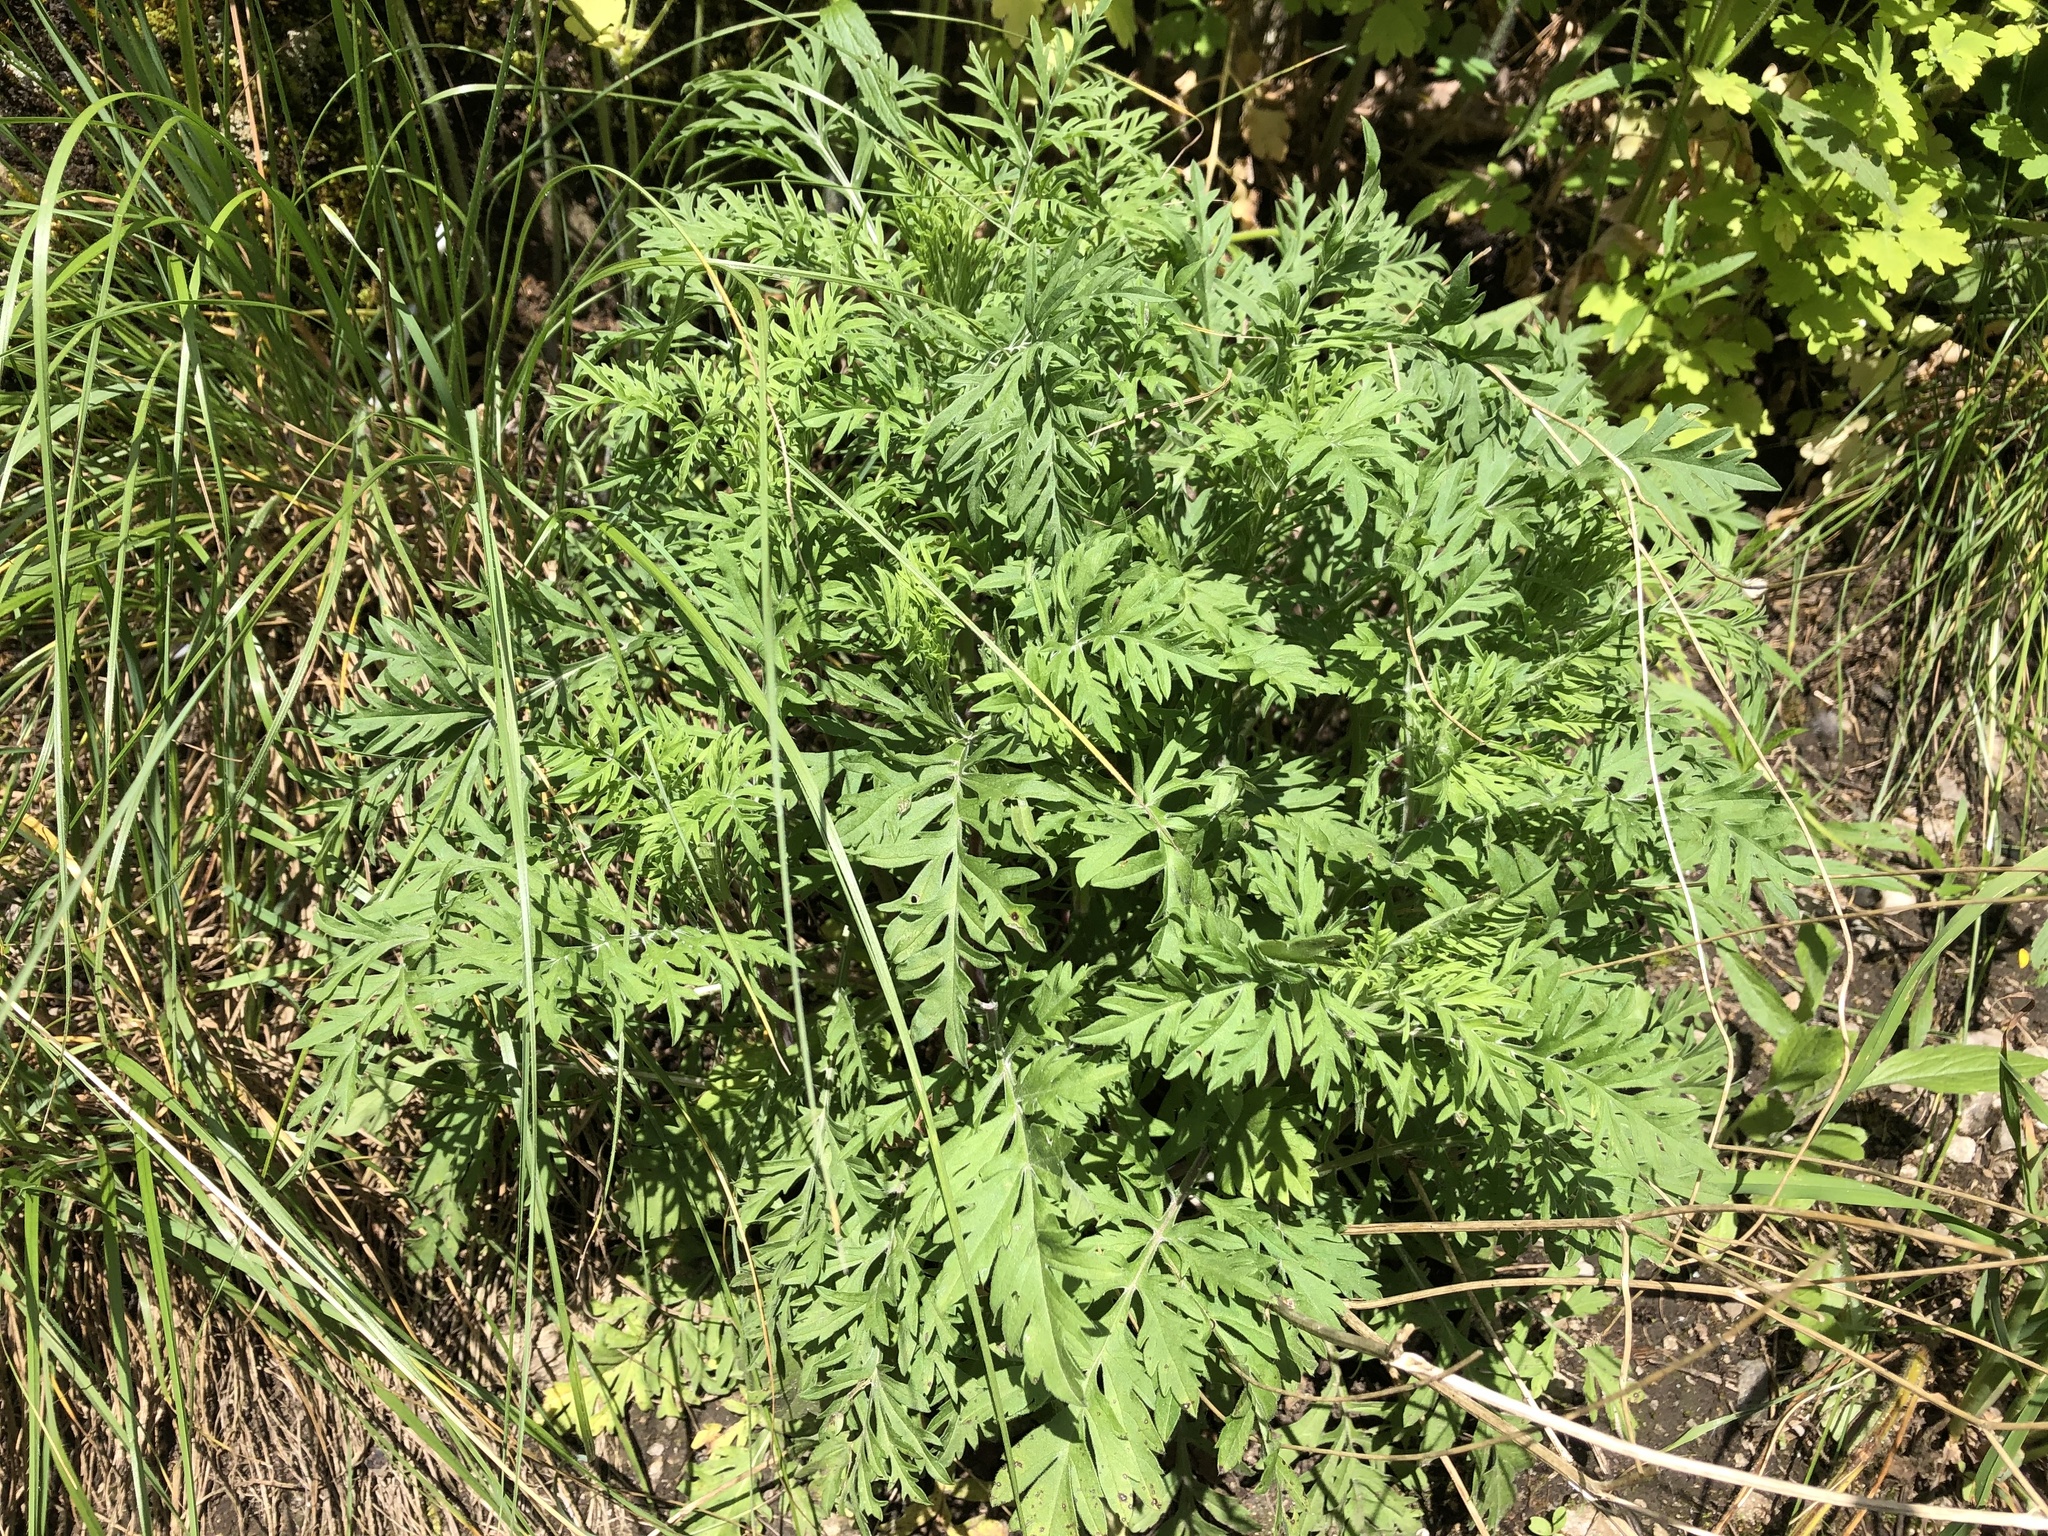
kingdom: Plantae
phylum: Tracheophyta
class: Magnoliopsida
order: Asterales
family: Asteraceae
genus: Artemisia
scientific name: Artemisia vulgaris
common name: Mugwort
